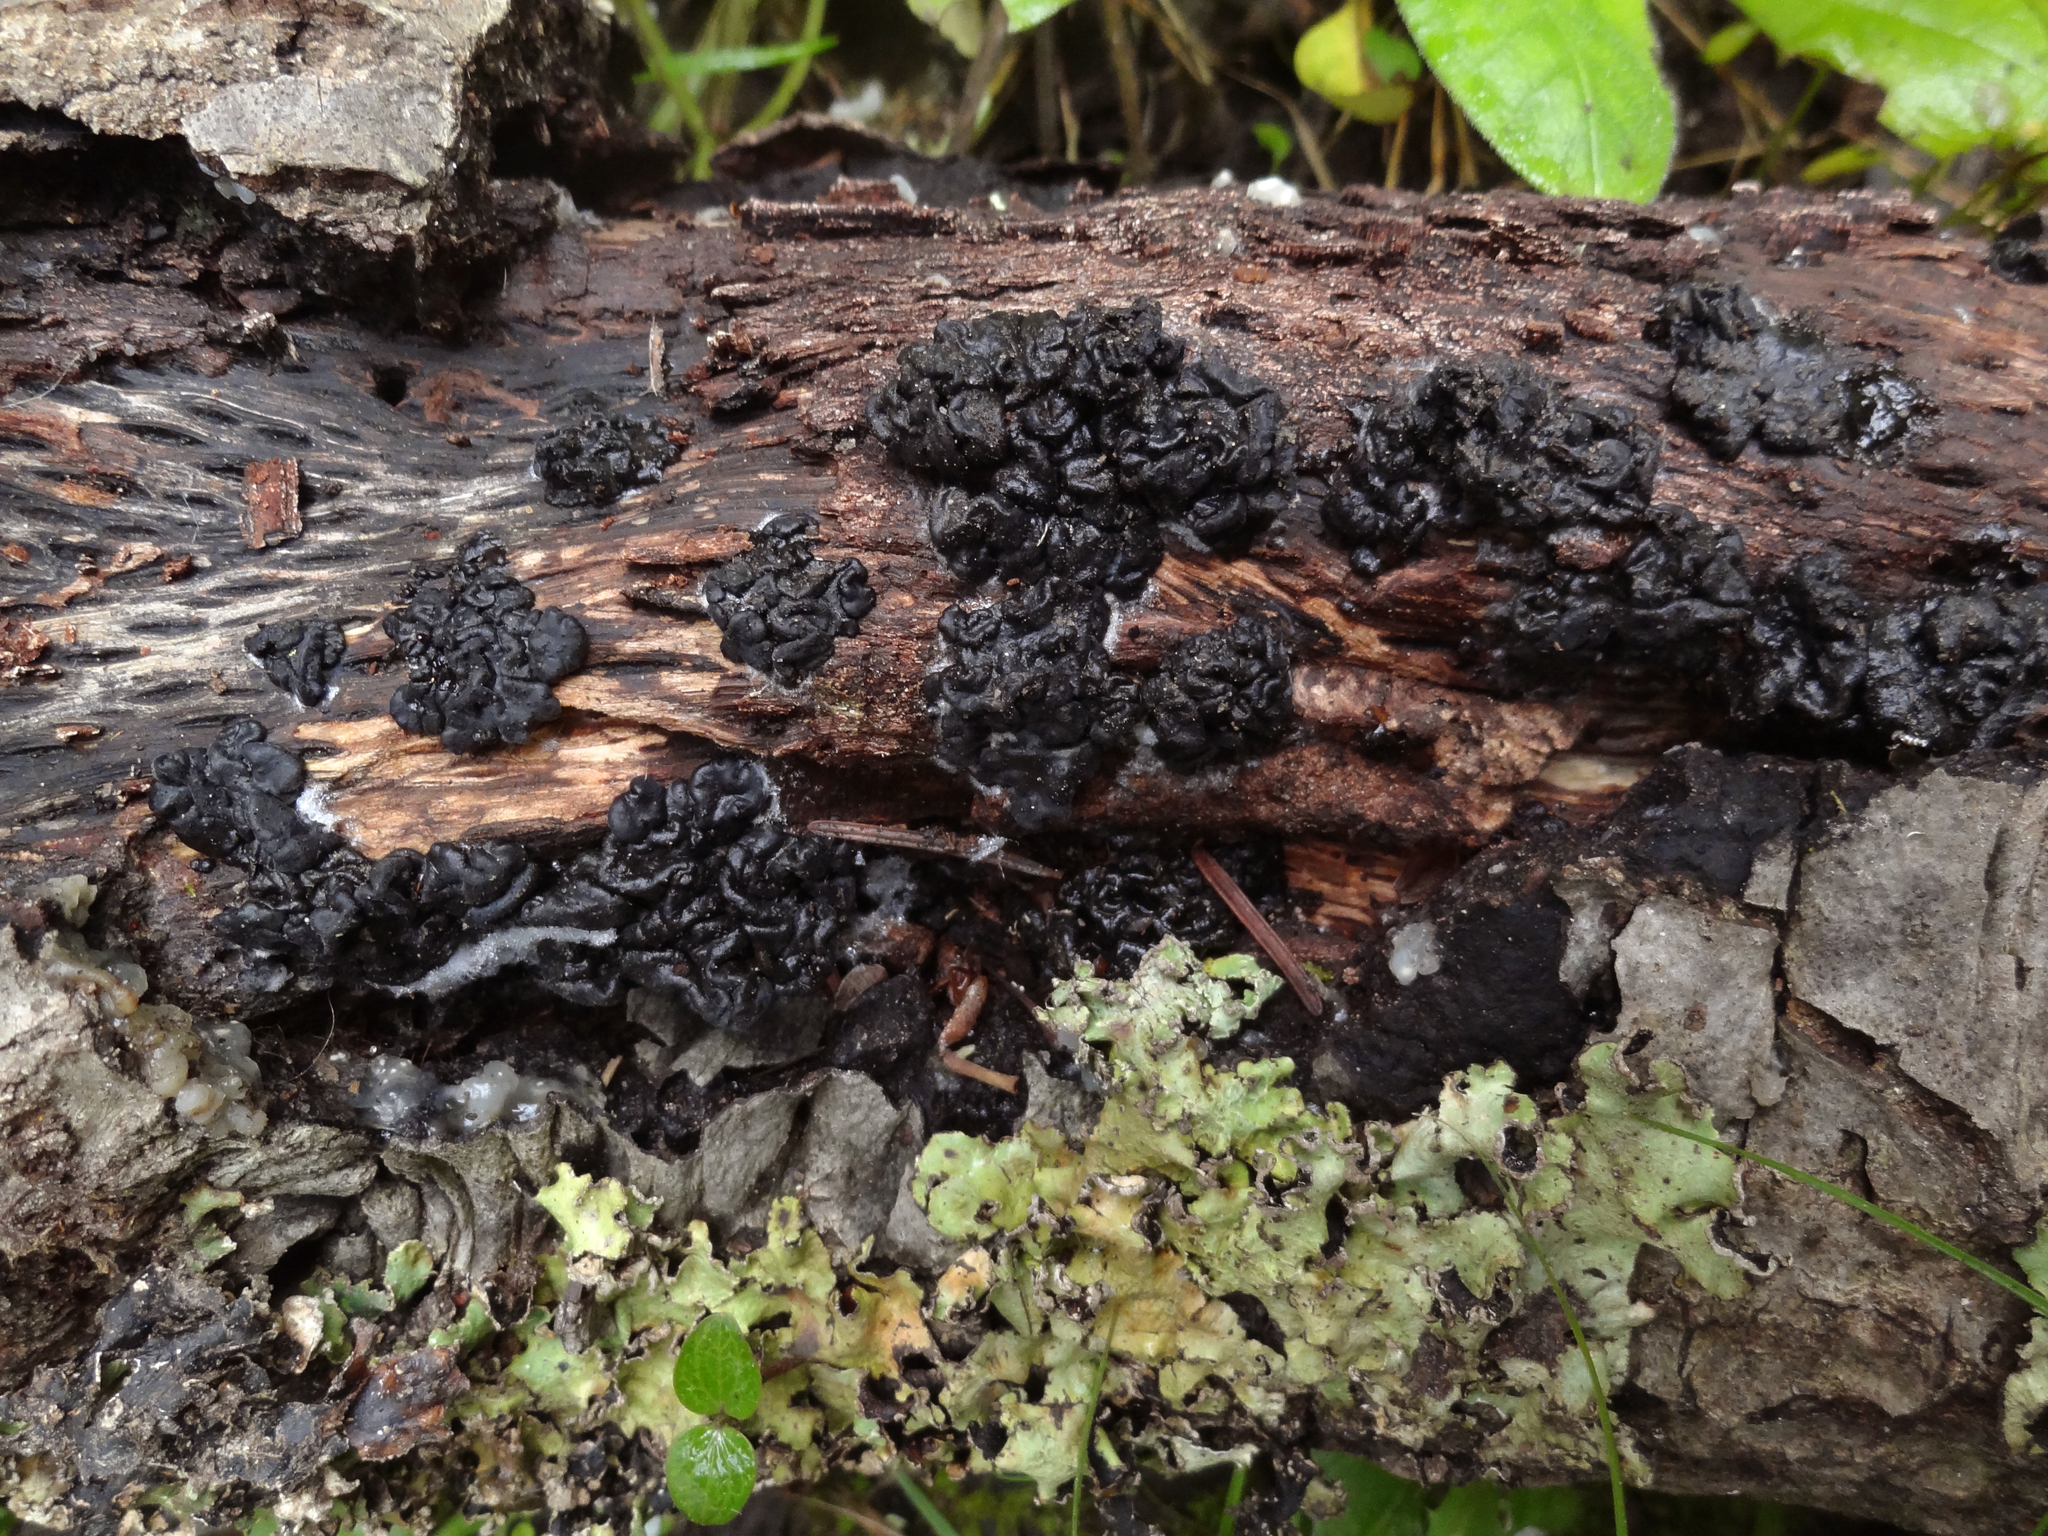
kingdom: Fungi
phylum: Basidiomycota
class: Agaricomycetes
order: Auriculariales
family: Auriculariaceae
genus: Exidia
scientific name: Exidia glandulosa
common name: Witches' butter
